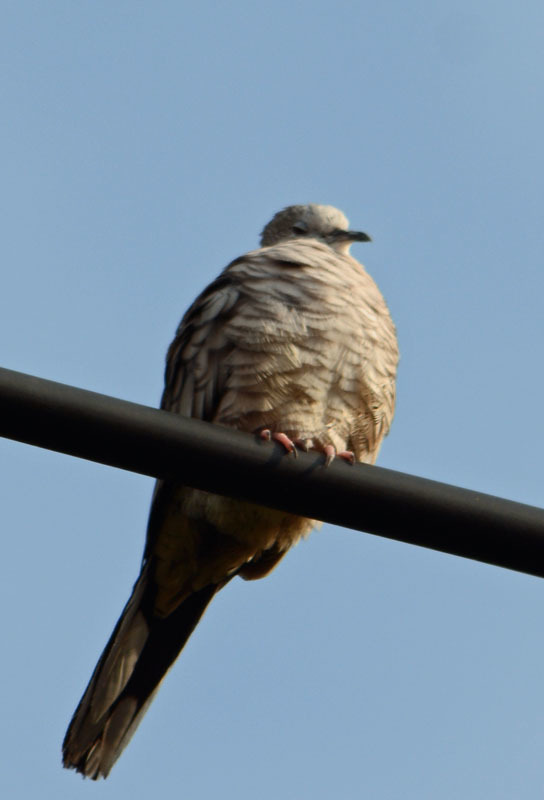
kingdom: Animalia
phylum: Chordata
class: Aves
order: Columbiformes
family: Columbidae
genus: Columbina
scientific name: Columbina inca
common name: Inca dove
